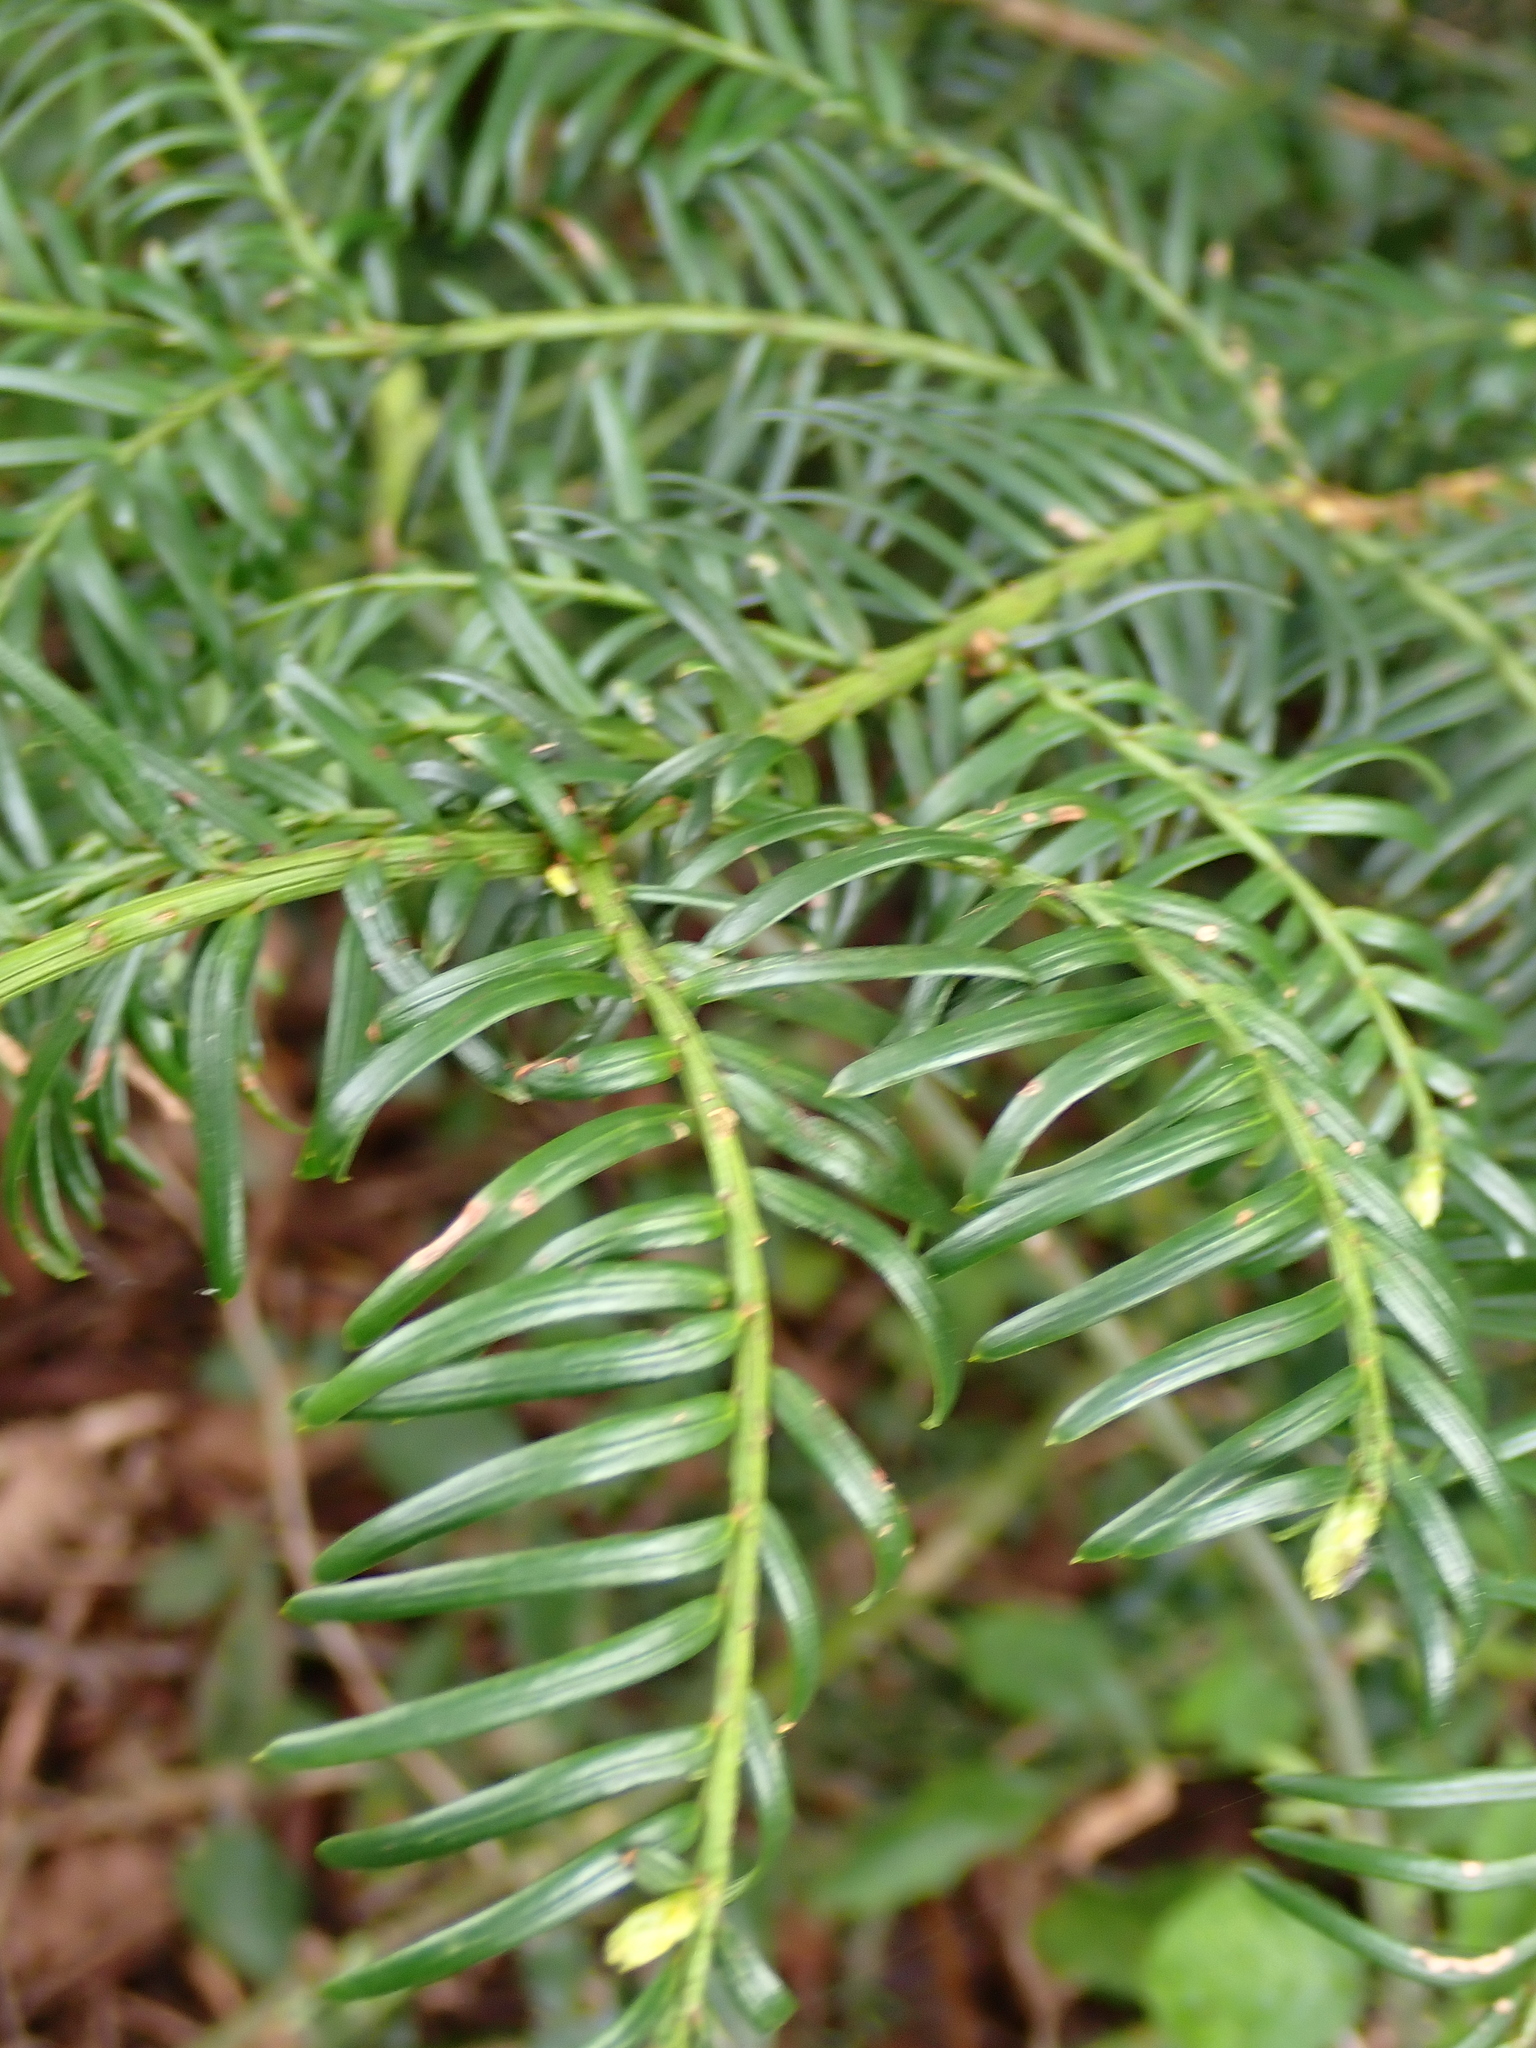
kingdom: Plantae
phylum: Tracheophyta
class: Pinopsida
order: Pinales
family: Taxaceae
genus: Taxus
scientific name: Taxus baccata
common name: Yew
